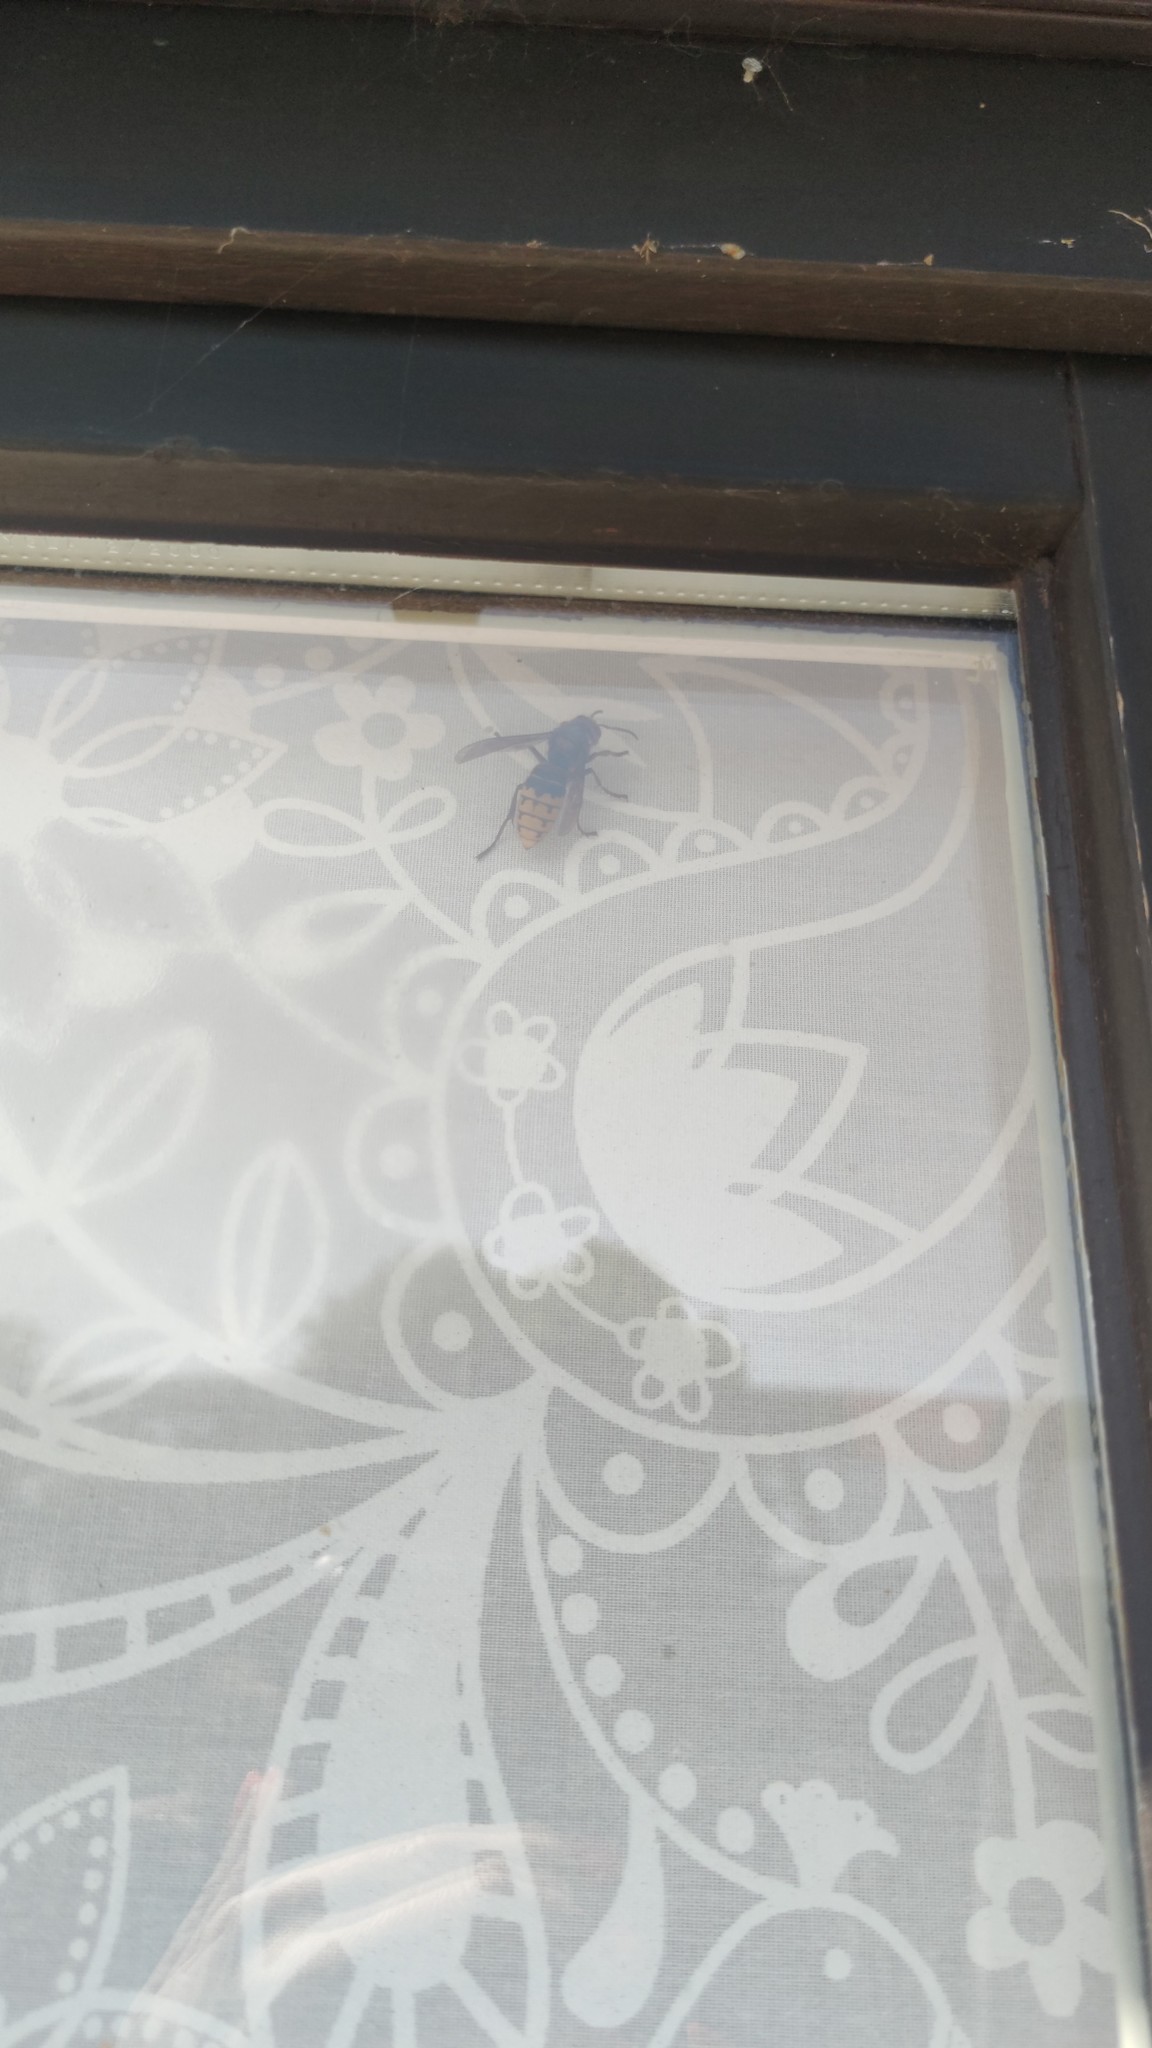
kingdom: Animalia
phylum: Arthropoda
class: Insecta
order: Hymenoptera
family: Vespidae
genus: Vespa
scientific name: Vespa crabro
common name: Hornet
